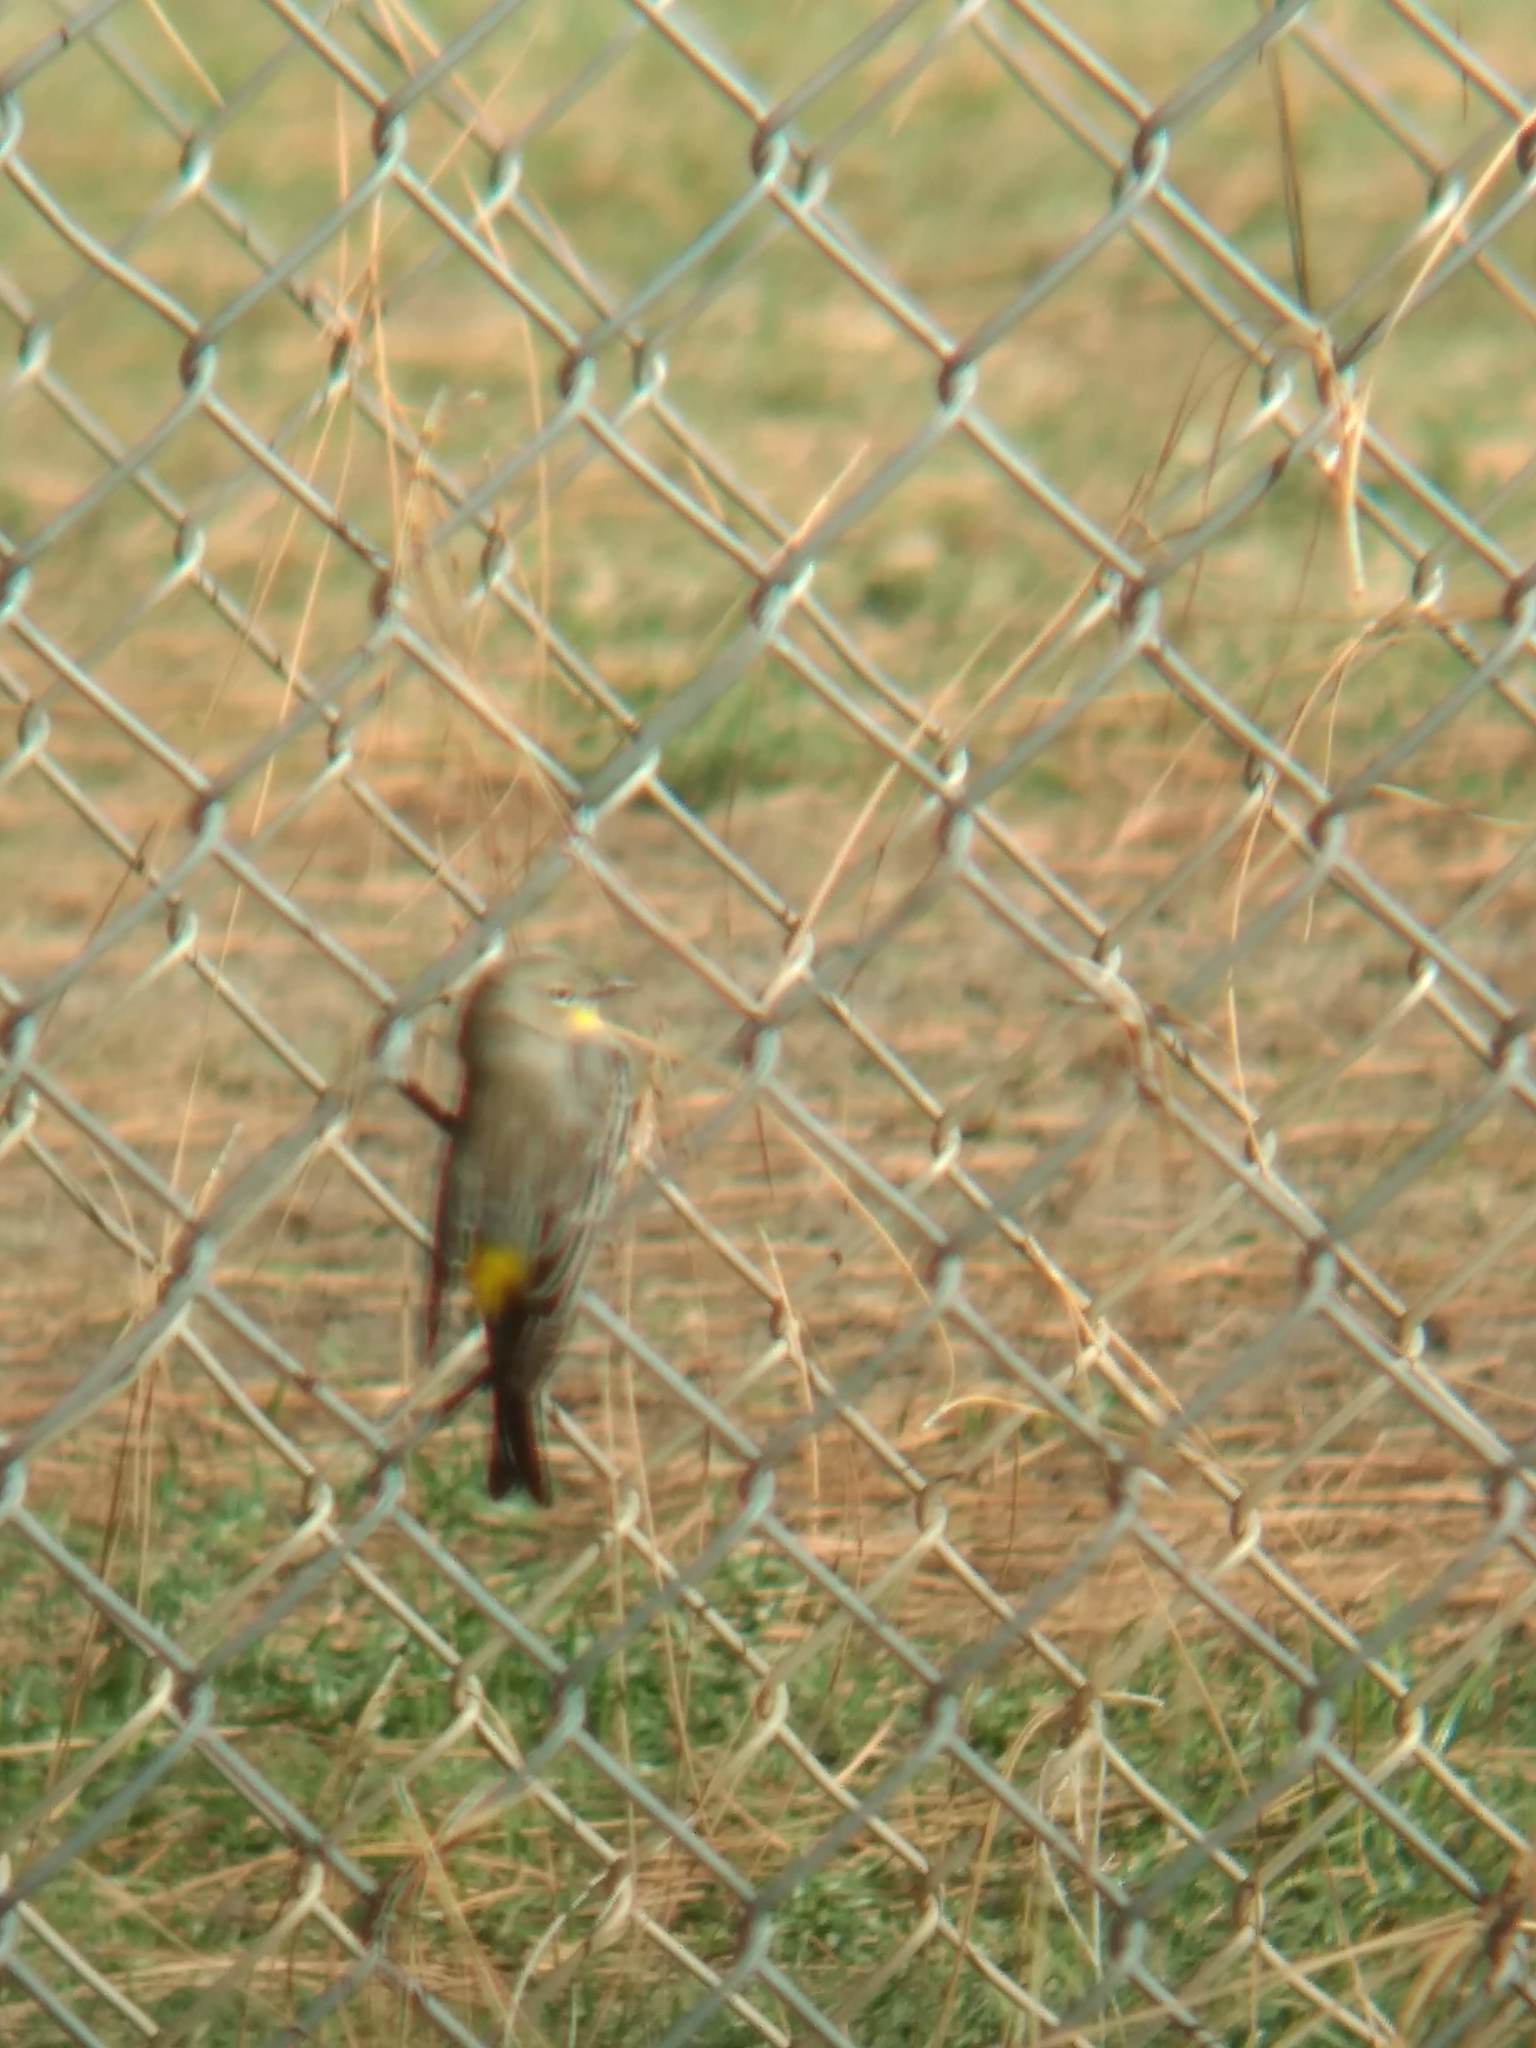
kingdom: Animalia
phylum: Chordata
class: Aves
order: Passeriformes
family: Parulidae
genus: Setophaga
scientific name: Setophaga coronata
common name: Myrtle warbler
